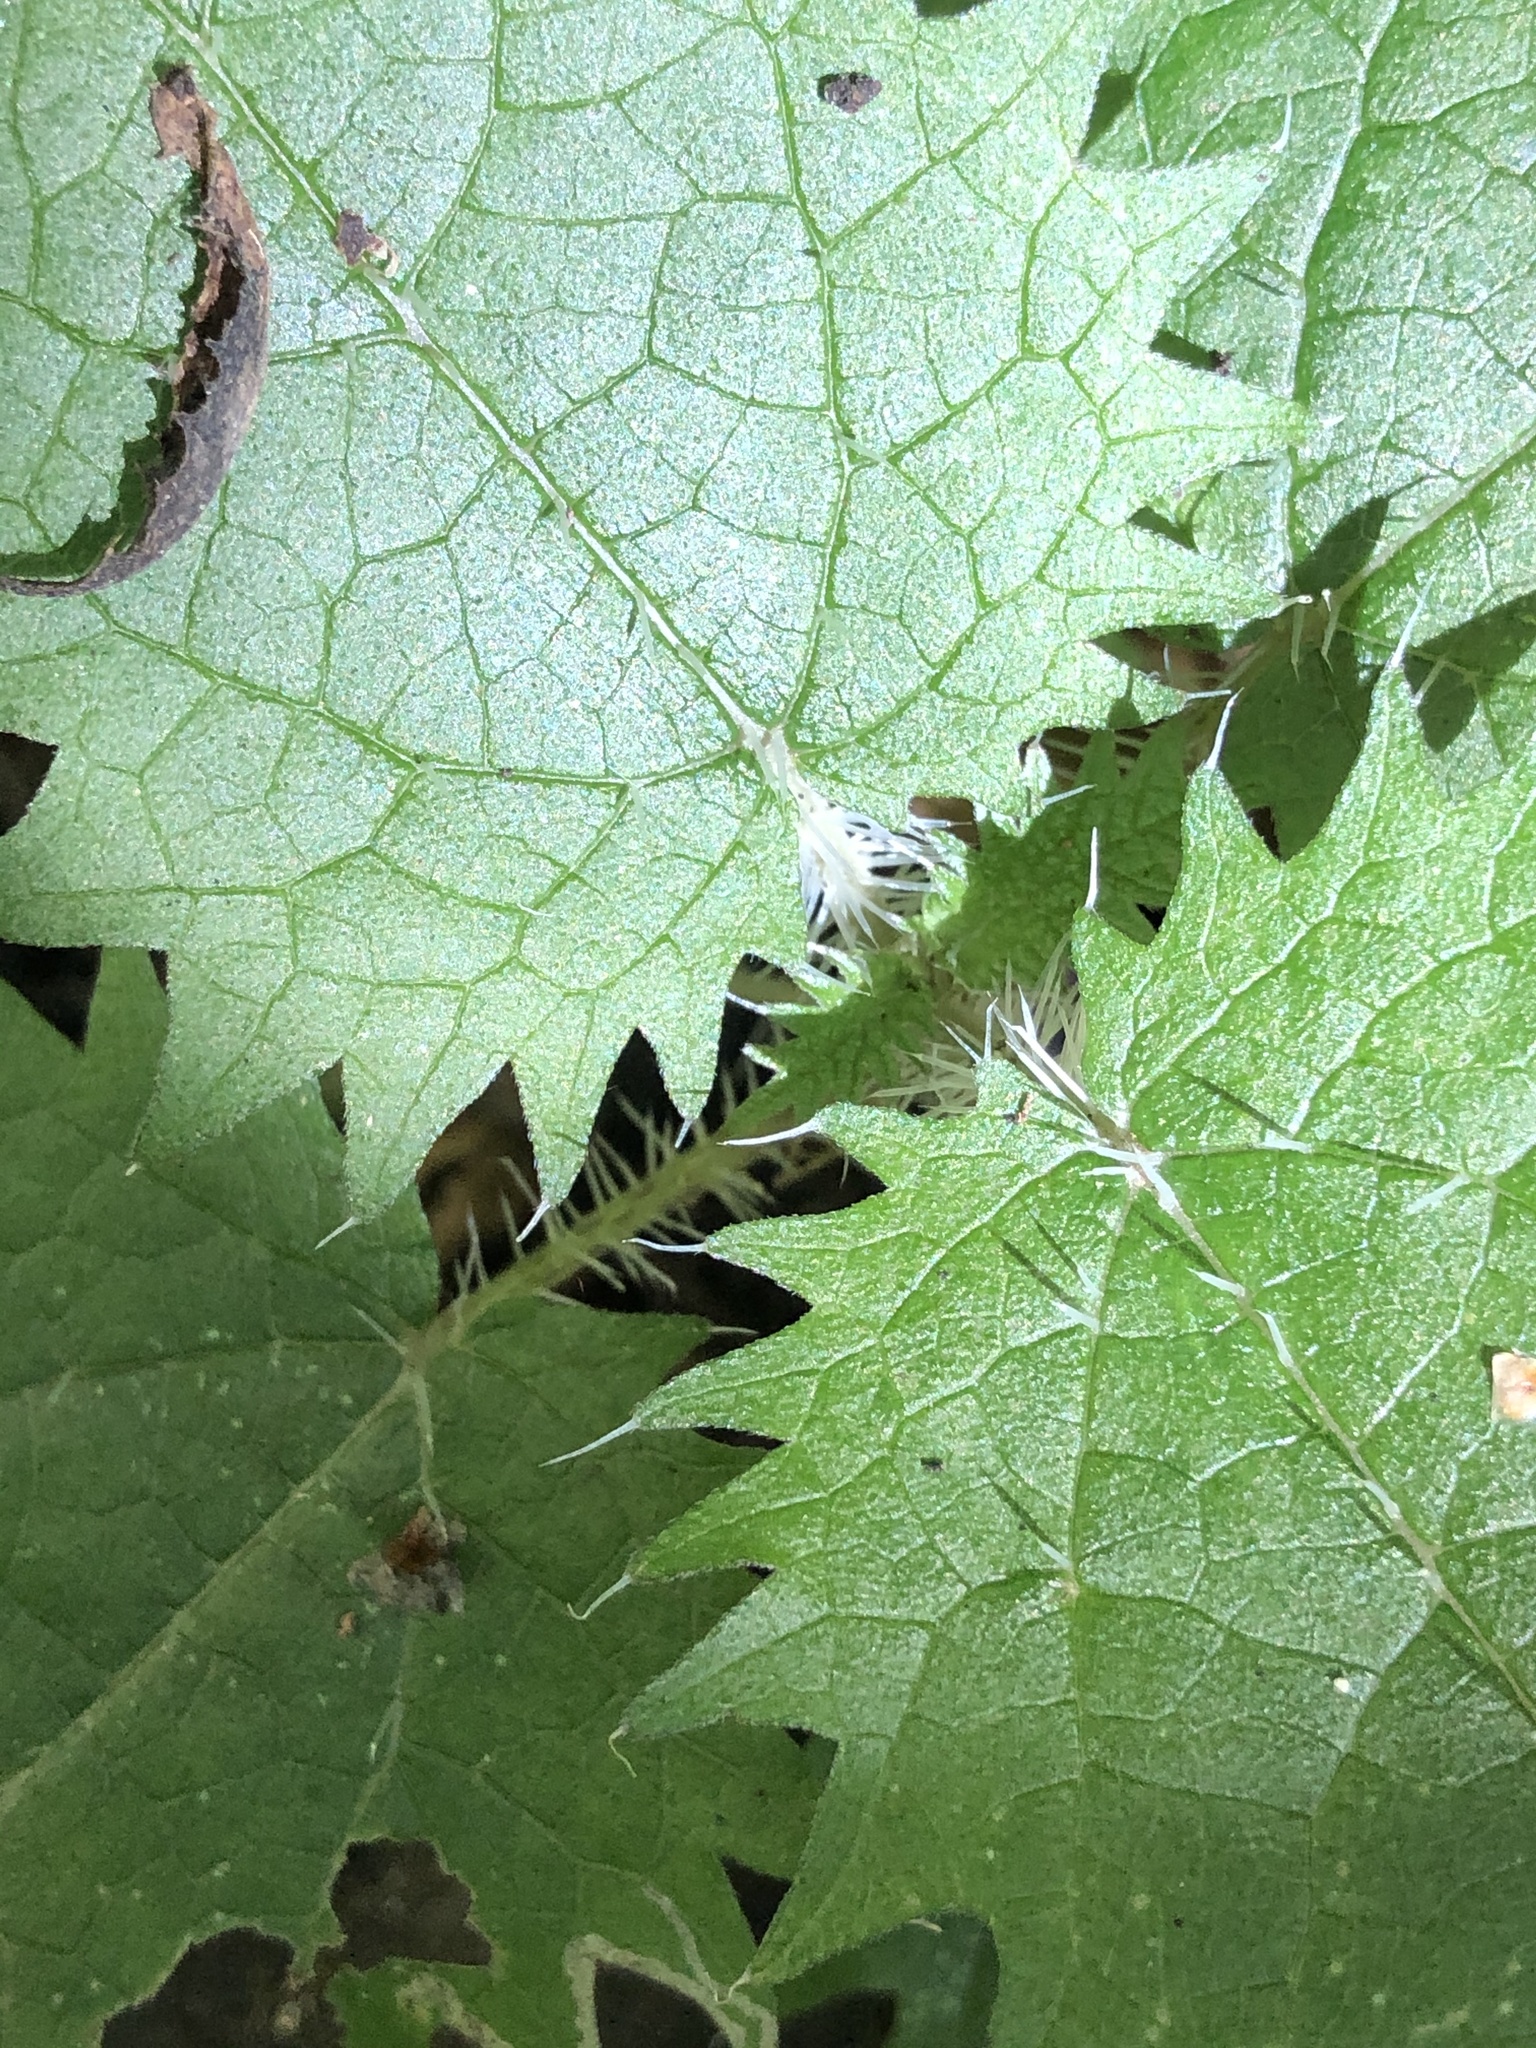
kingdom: Plantae
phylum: Tracheophyta
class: Magnoliopsida
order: Rosales
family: Urticaceae
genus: Urtica
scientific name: Urtica ferox
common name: Tree nettle
